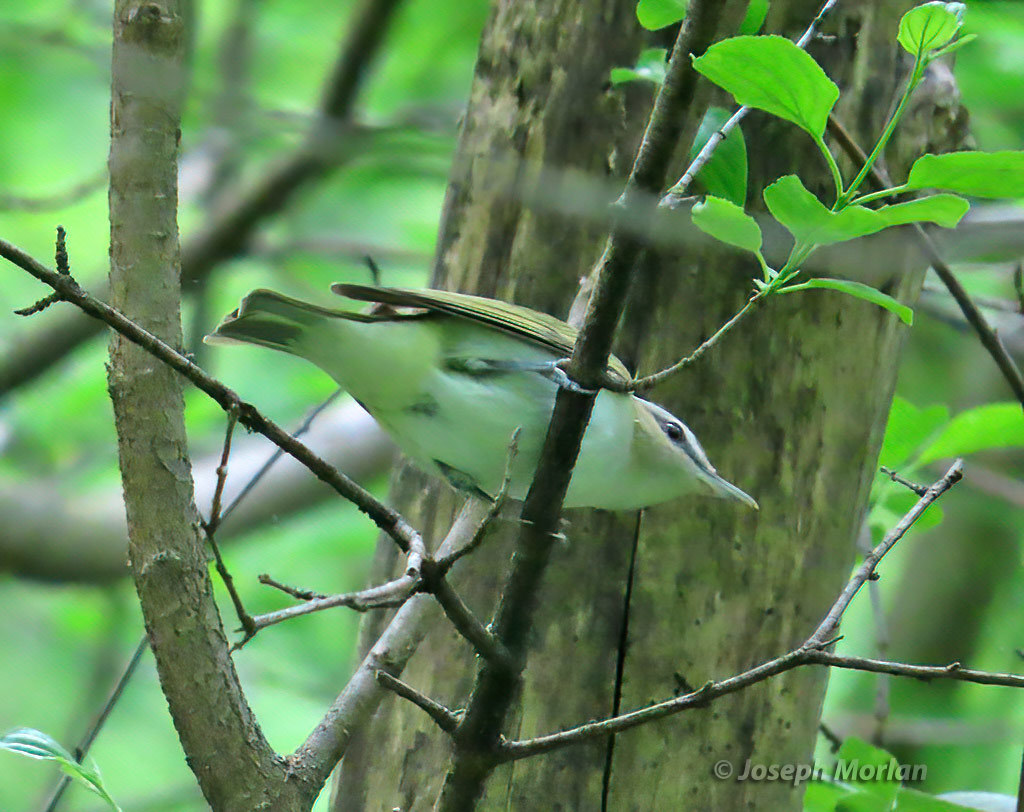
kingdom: Animalia
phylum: Chordata
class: Aves
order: Passeriformes
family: Vireonidae
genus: Vireo
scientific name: Vireo olivaceus
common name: Red-eyed vireo
